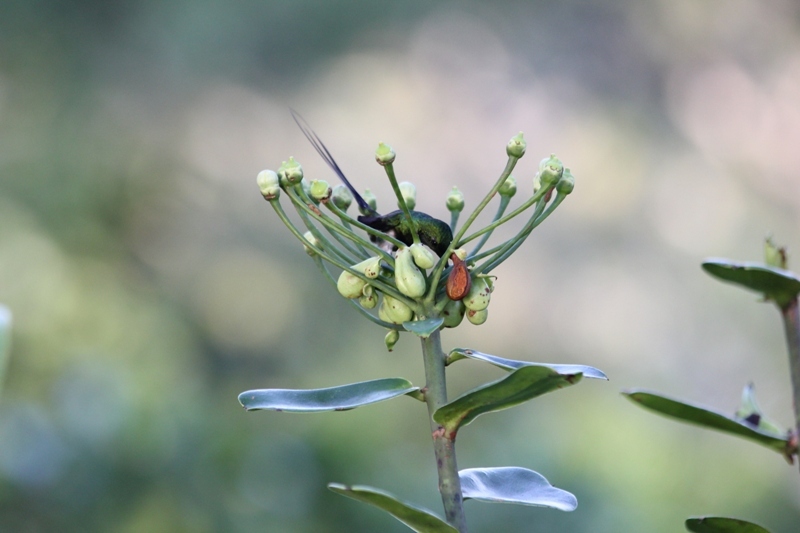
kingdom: Animalia
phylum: Chordata
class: Aves
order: Apodiformes
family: Trochilidae
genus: Discosura
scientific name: Discosura langsdorffi
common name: Black-bellied thorntail
